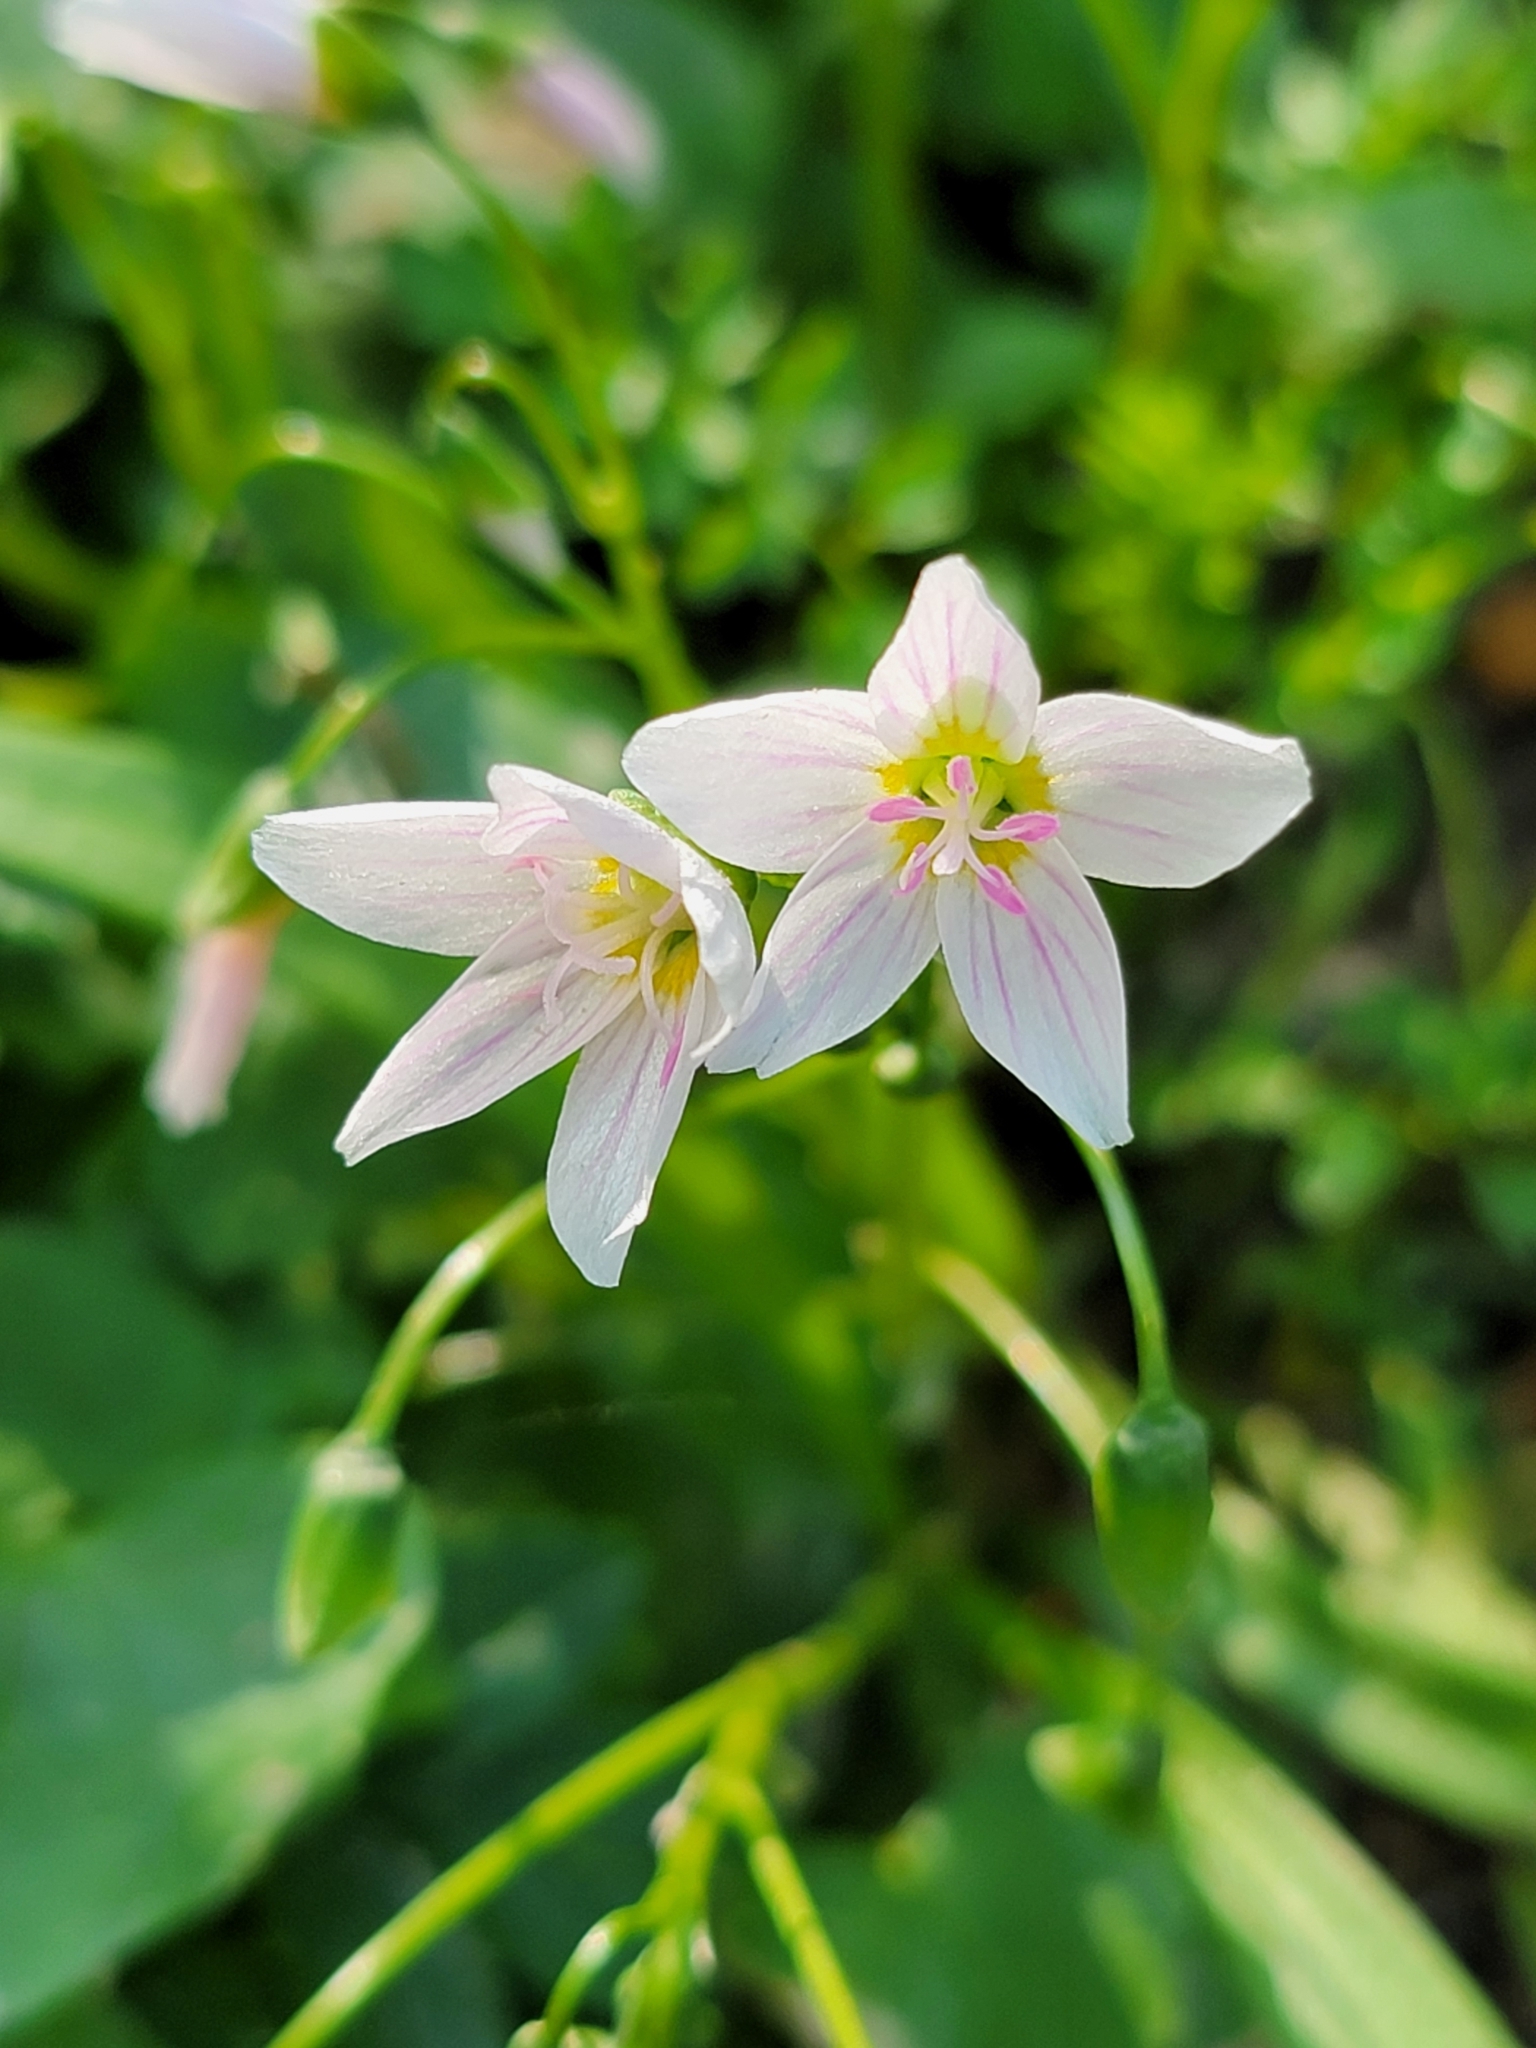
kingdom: Plantae
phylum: Tracheophyta
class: Magnoliopsida
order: Caryophyllales
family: Montiaceae
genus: Claytonia
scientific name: Claytonia virginica
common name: Virginia springbeauty
